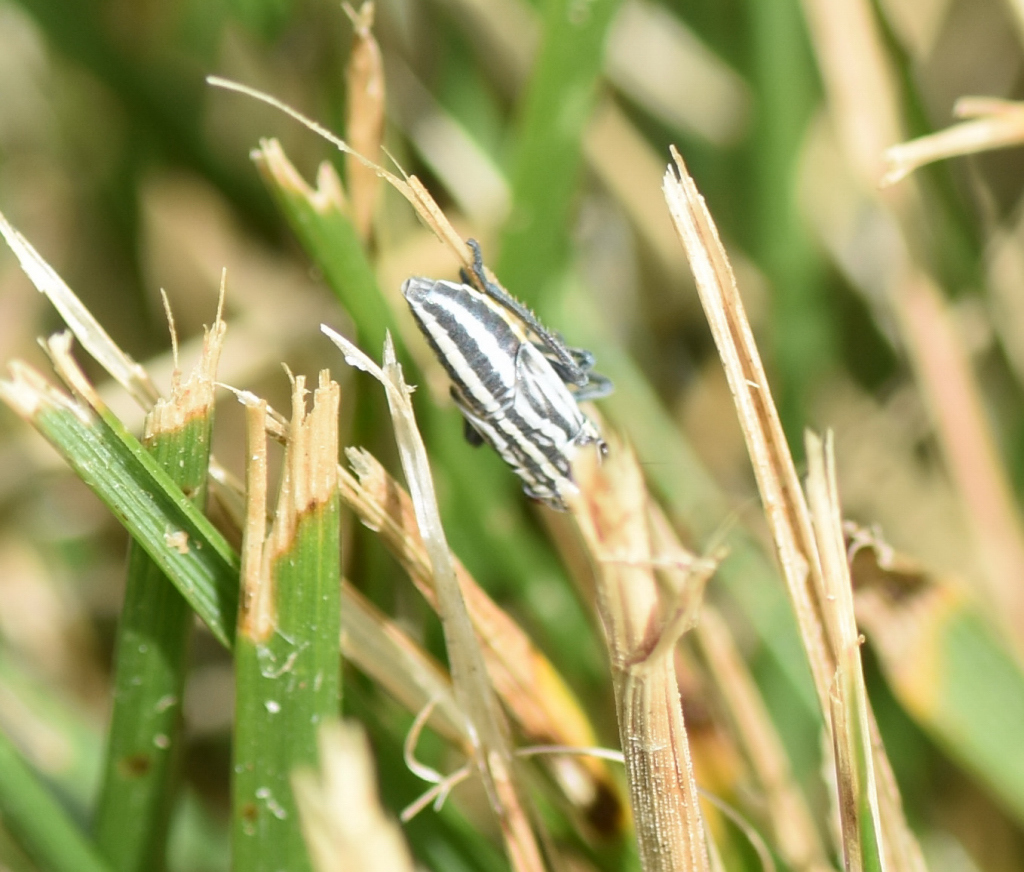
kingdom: Animalia
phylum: Arthropoda
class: Insecta
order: Hemiptera
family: Cicadellidae
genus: Cuerna
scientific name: Cuerna striata
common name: Striped leafhopper
